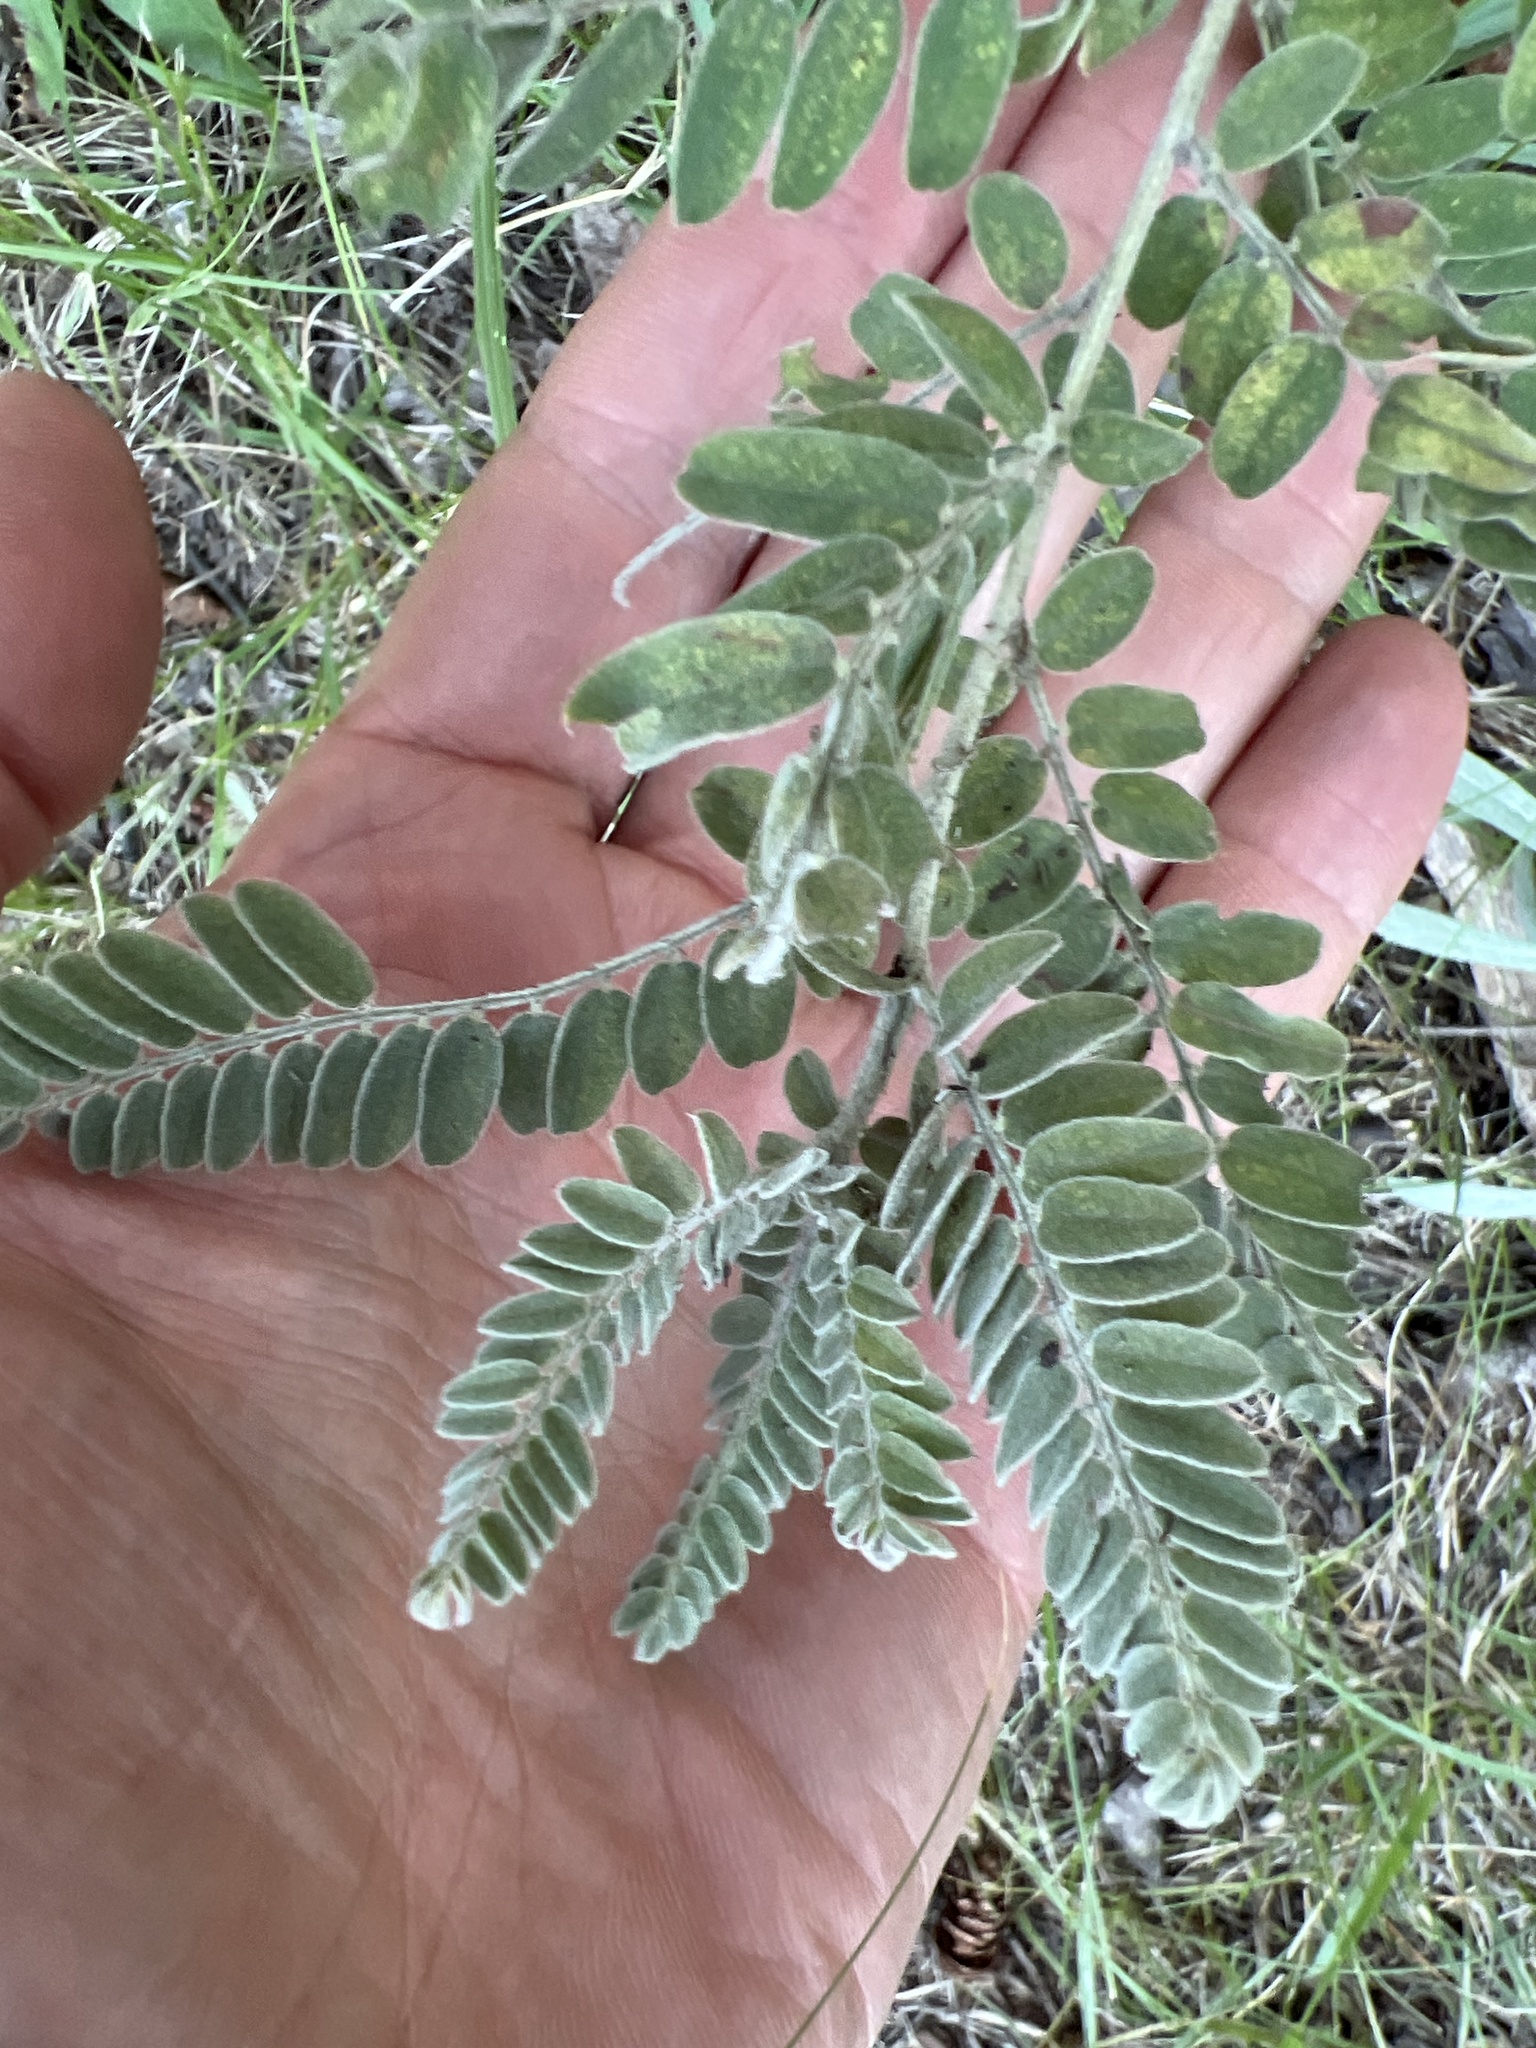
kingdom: Plantae
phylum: Tracheophyta
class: Magnoliopsida
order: Fabales
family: Fabaceae
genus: Amorpha
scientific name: Amorpha canescens
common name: Leadplant
